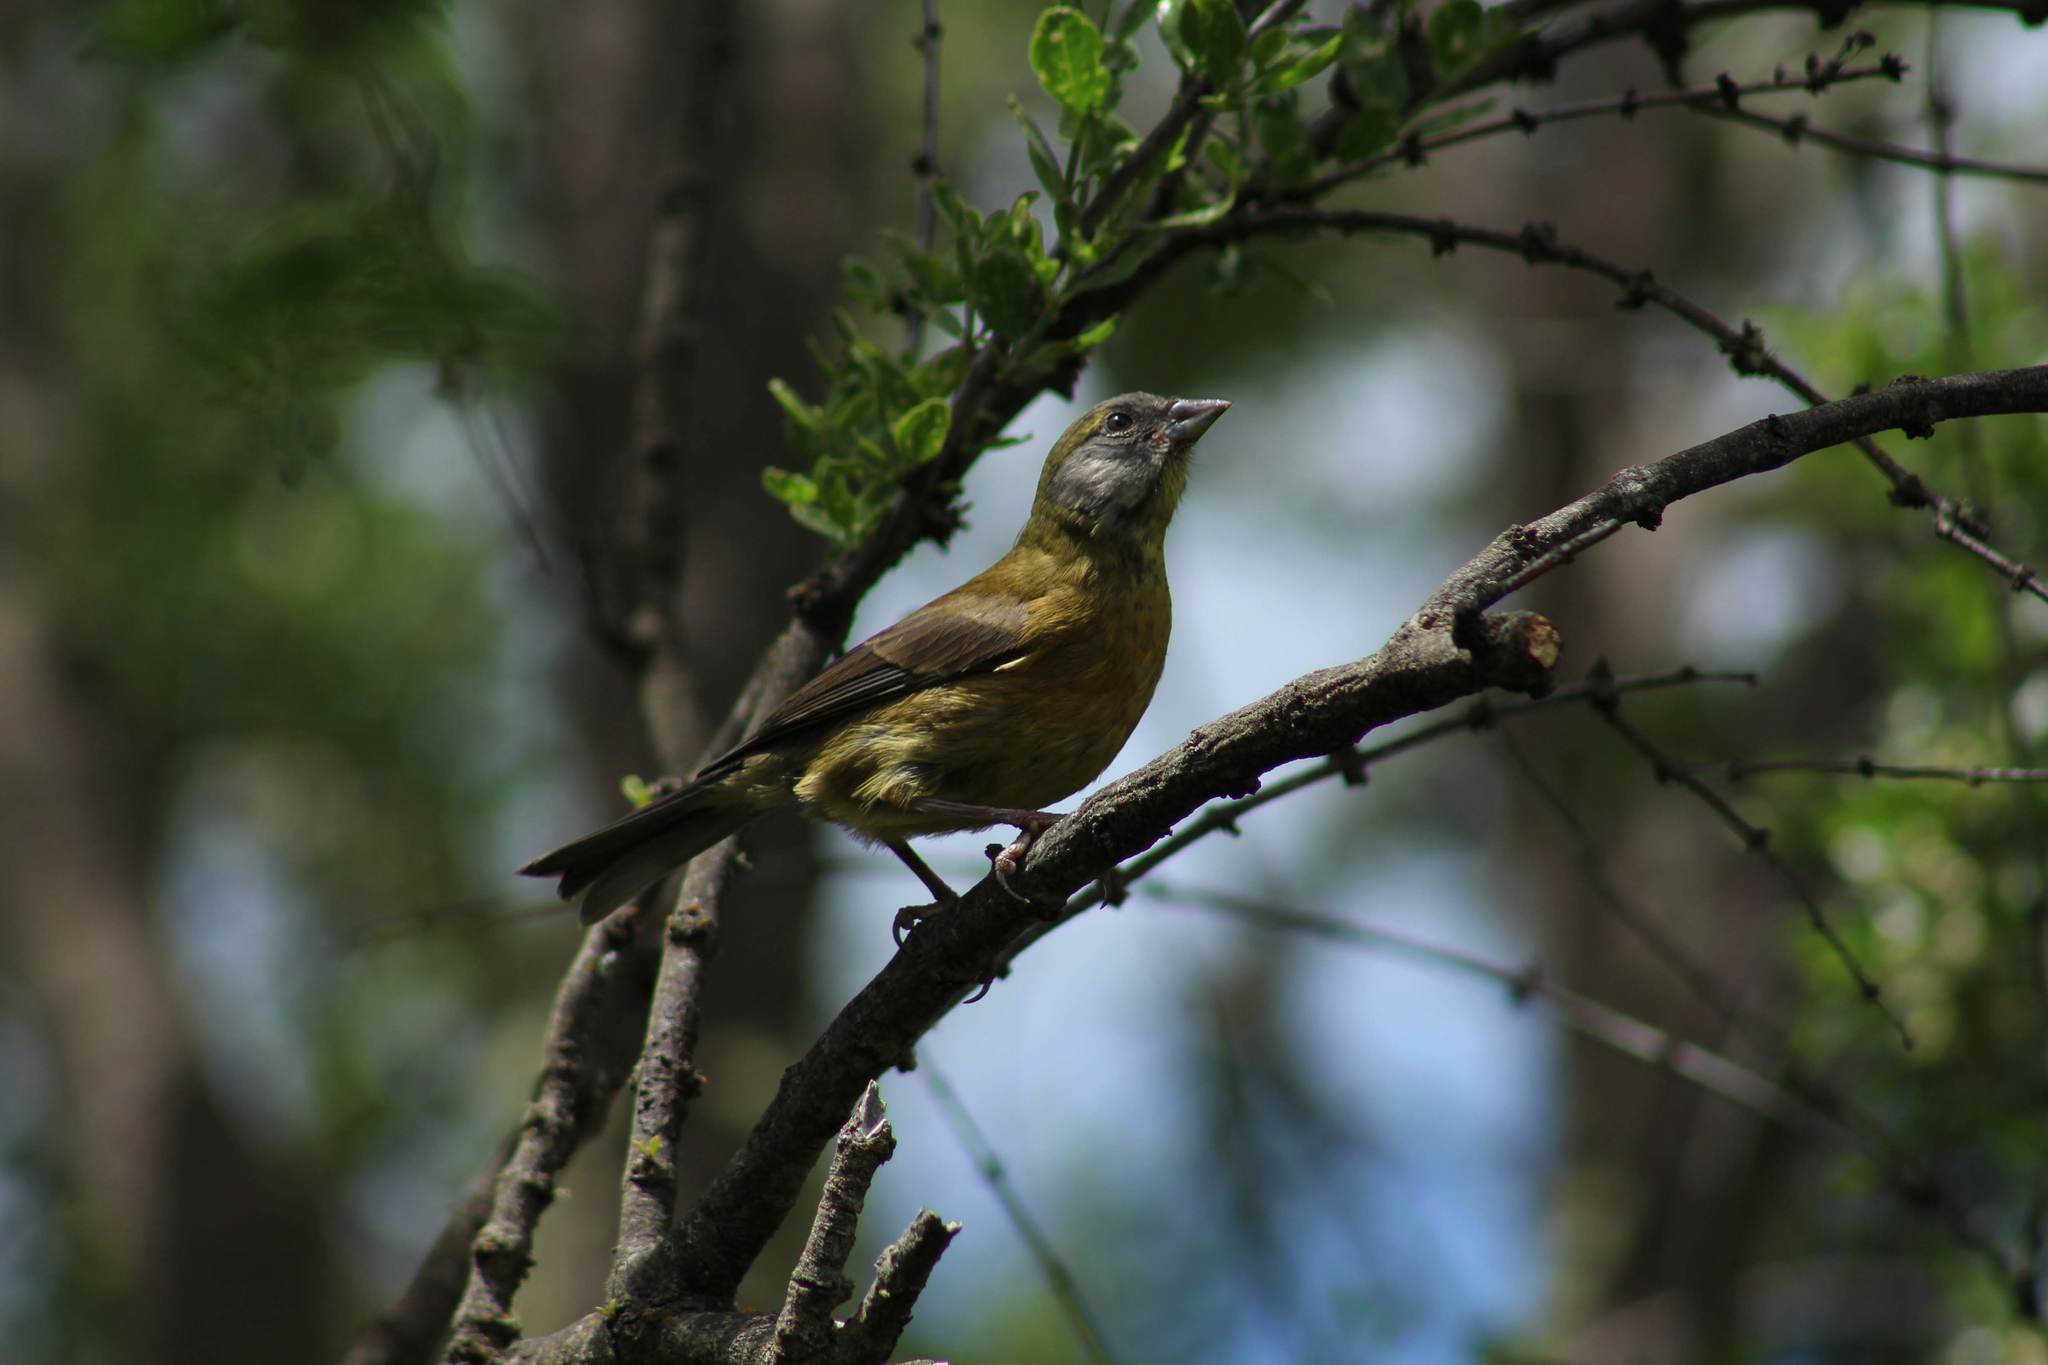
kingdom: Animalia
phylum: Chordata
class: Aves
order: Passeriformes
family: Thraupidae
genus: Phrygilus
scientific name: Phrygilus patagonicus
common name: Patagonian sierra finch
